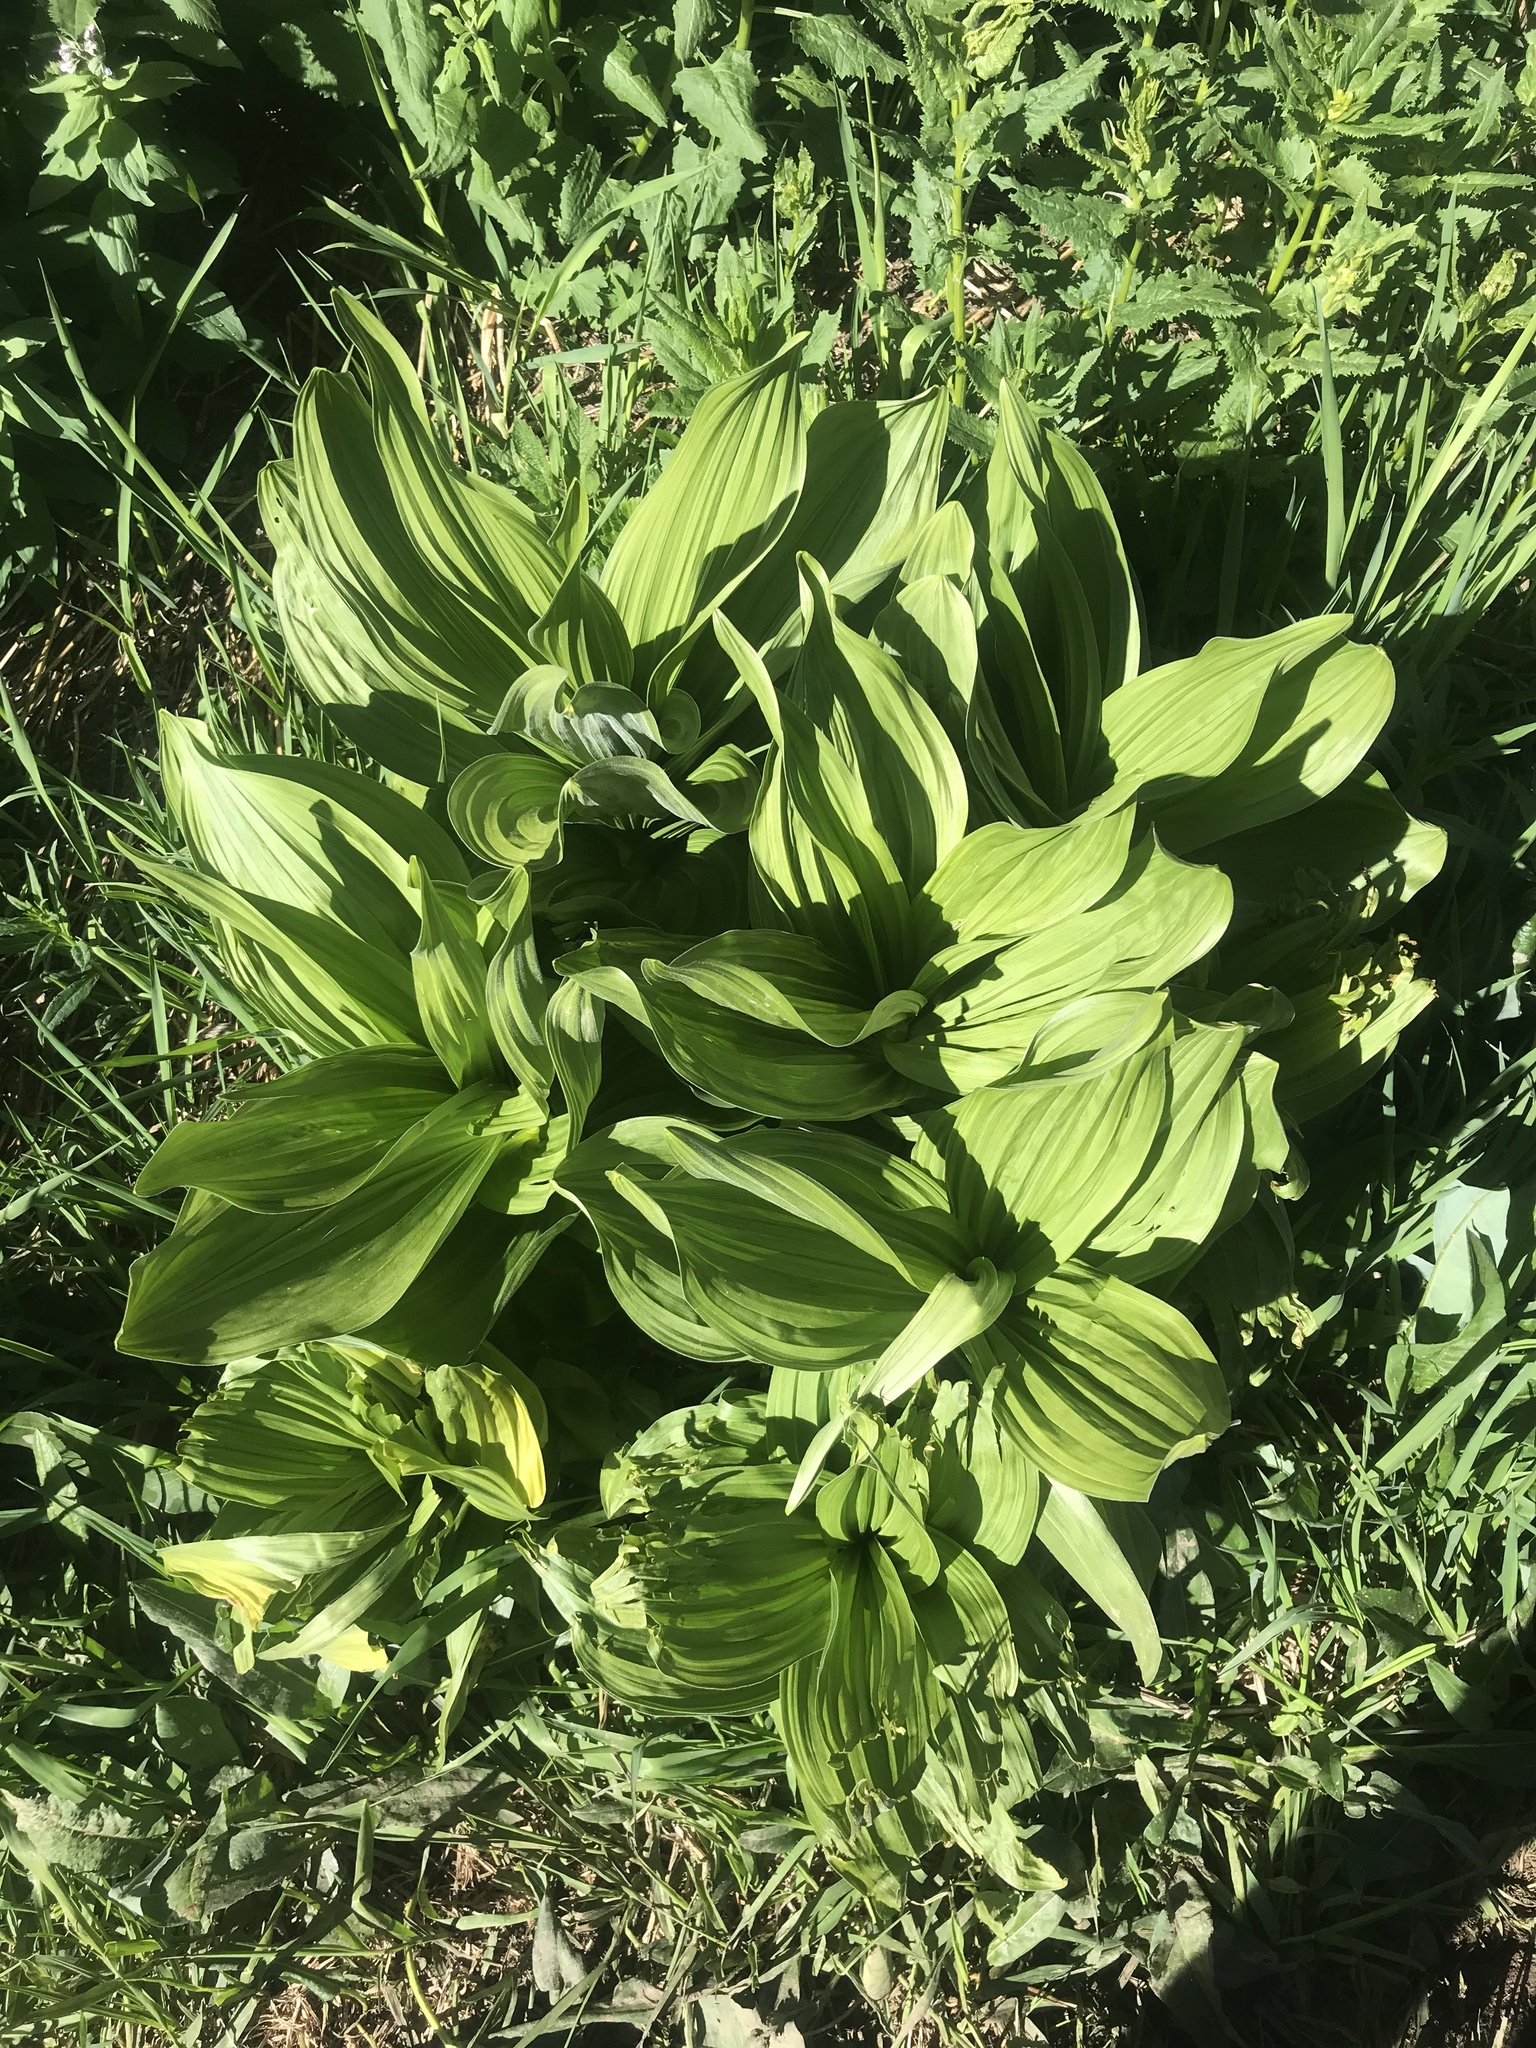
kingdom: Plantae
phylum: Tracheophyta
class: Liliopsida
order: Liliales
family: Melanthiaceae
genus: Veratrum
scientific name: Veratrum californicum
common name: California veratrum
